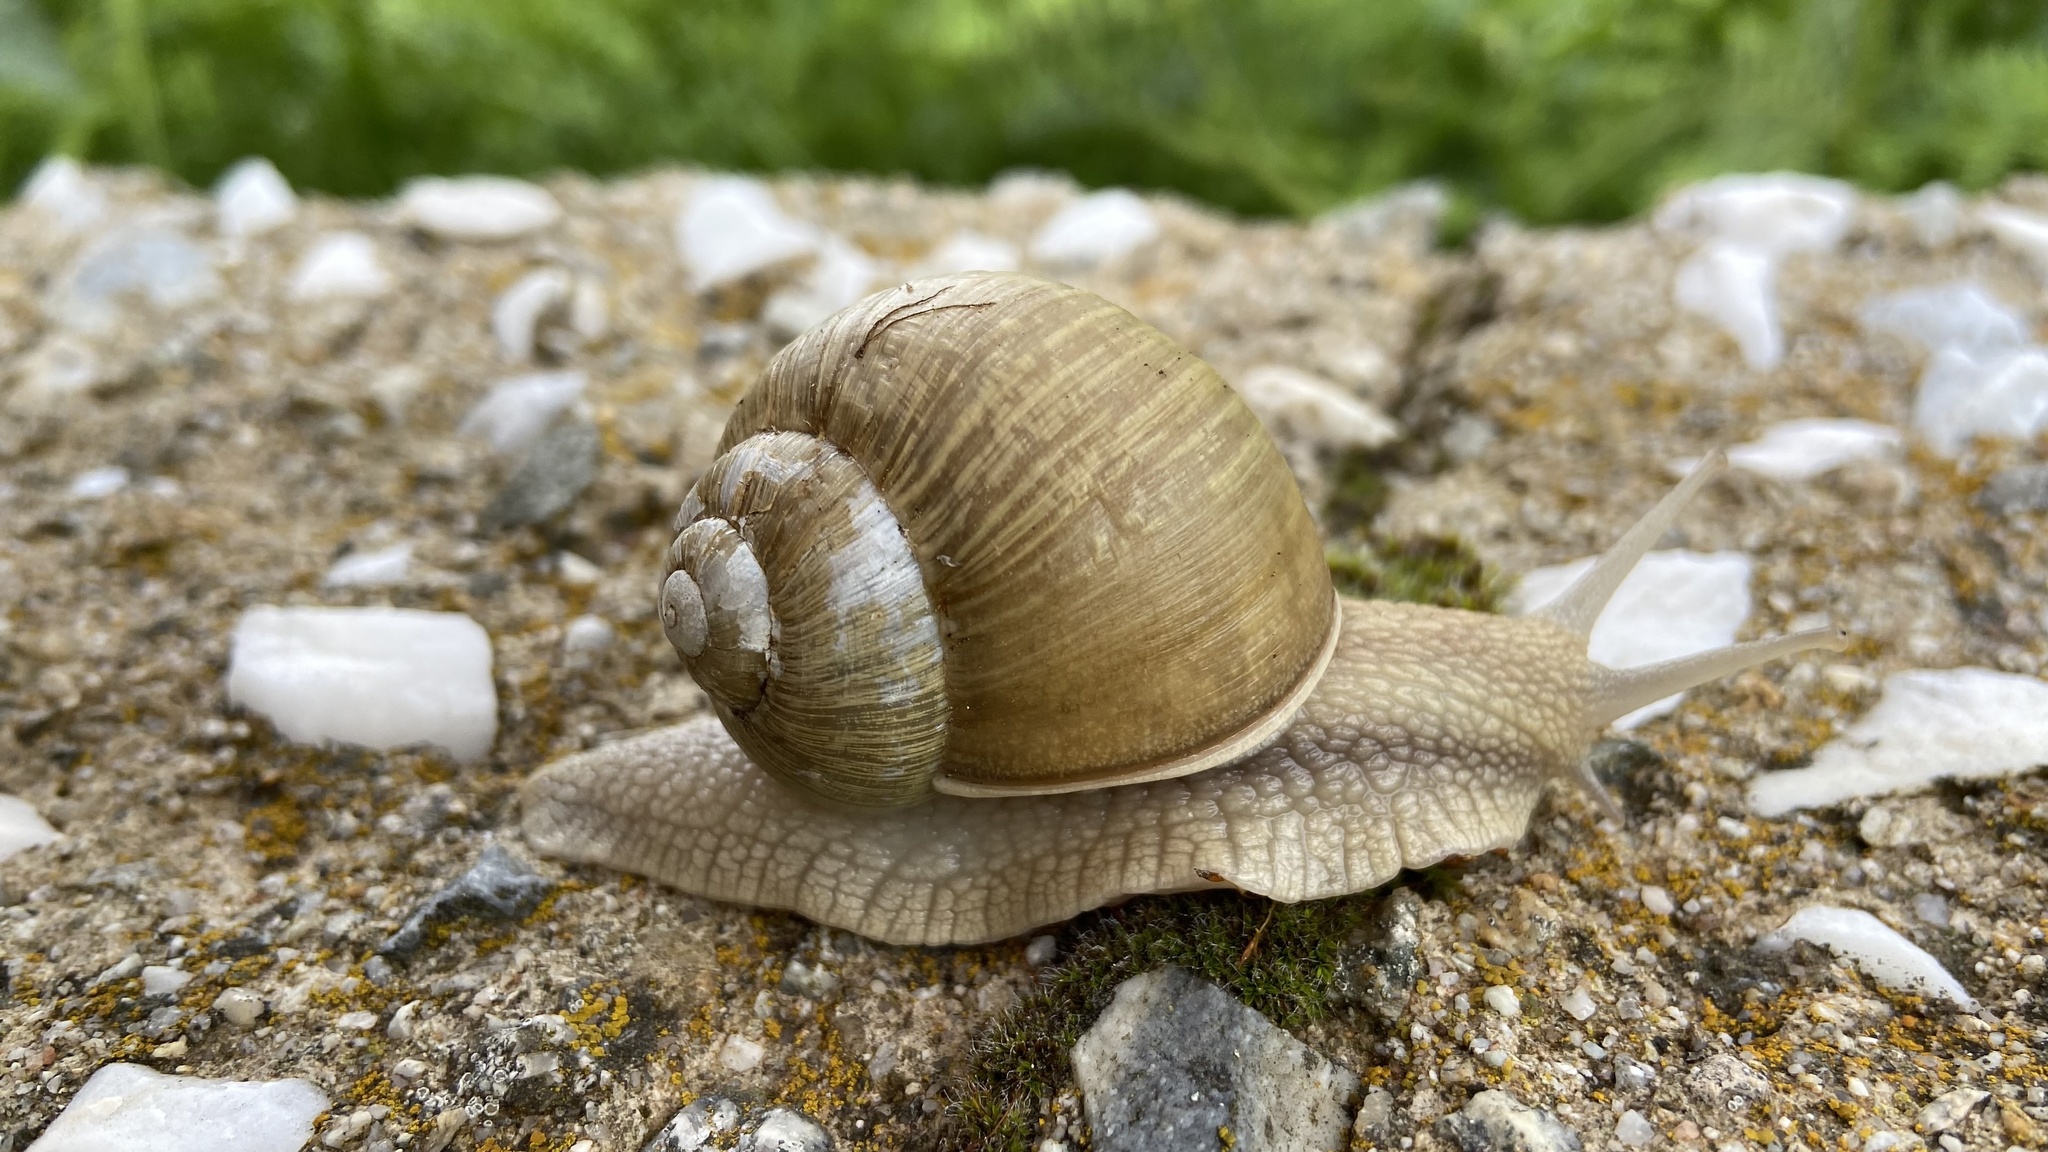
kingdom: Animalia
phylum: Mollusca
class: Gastropoda
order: Stylommatophora
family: Helicidae
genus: Helix
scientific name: Helix thessalica
